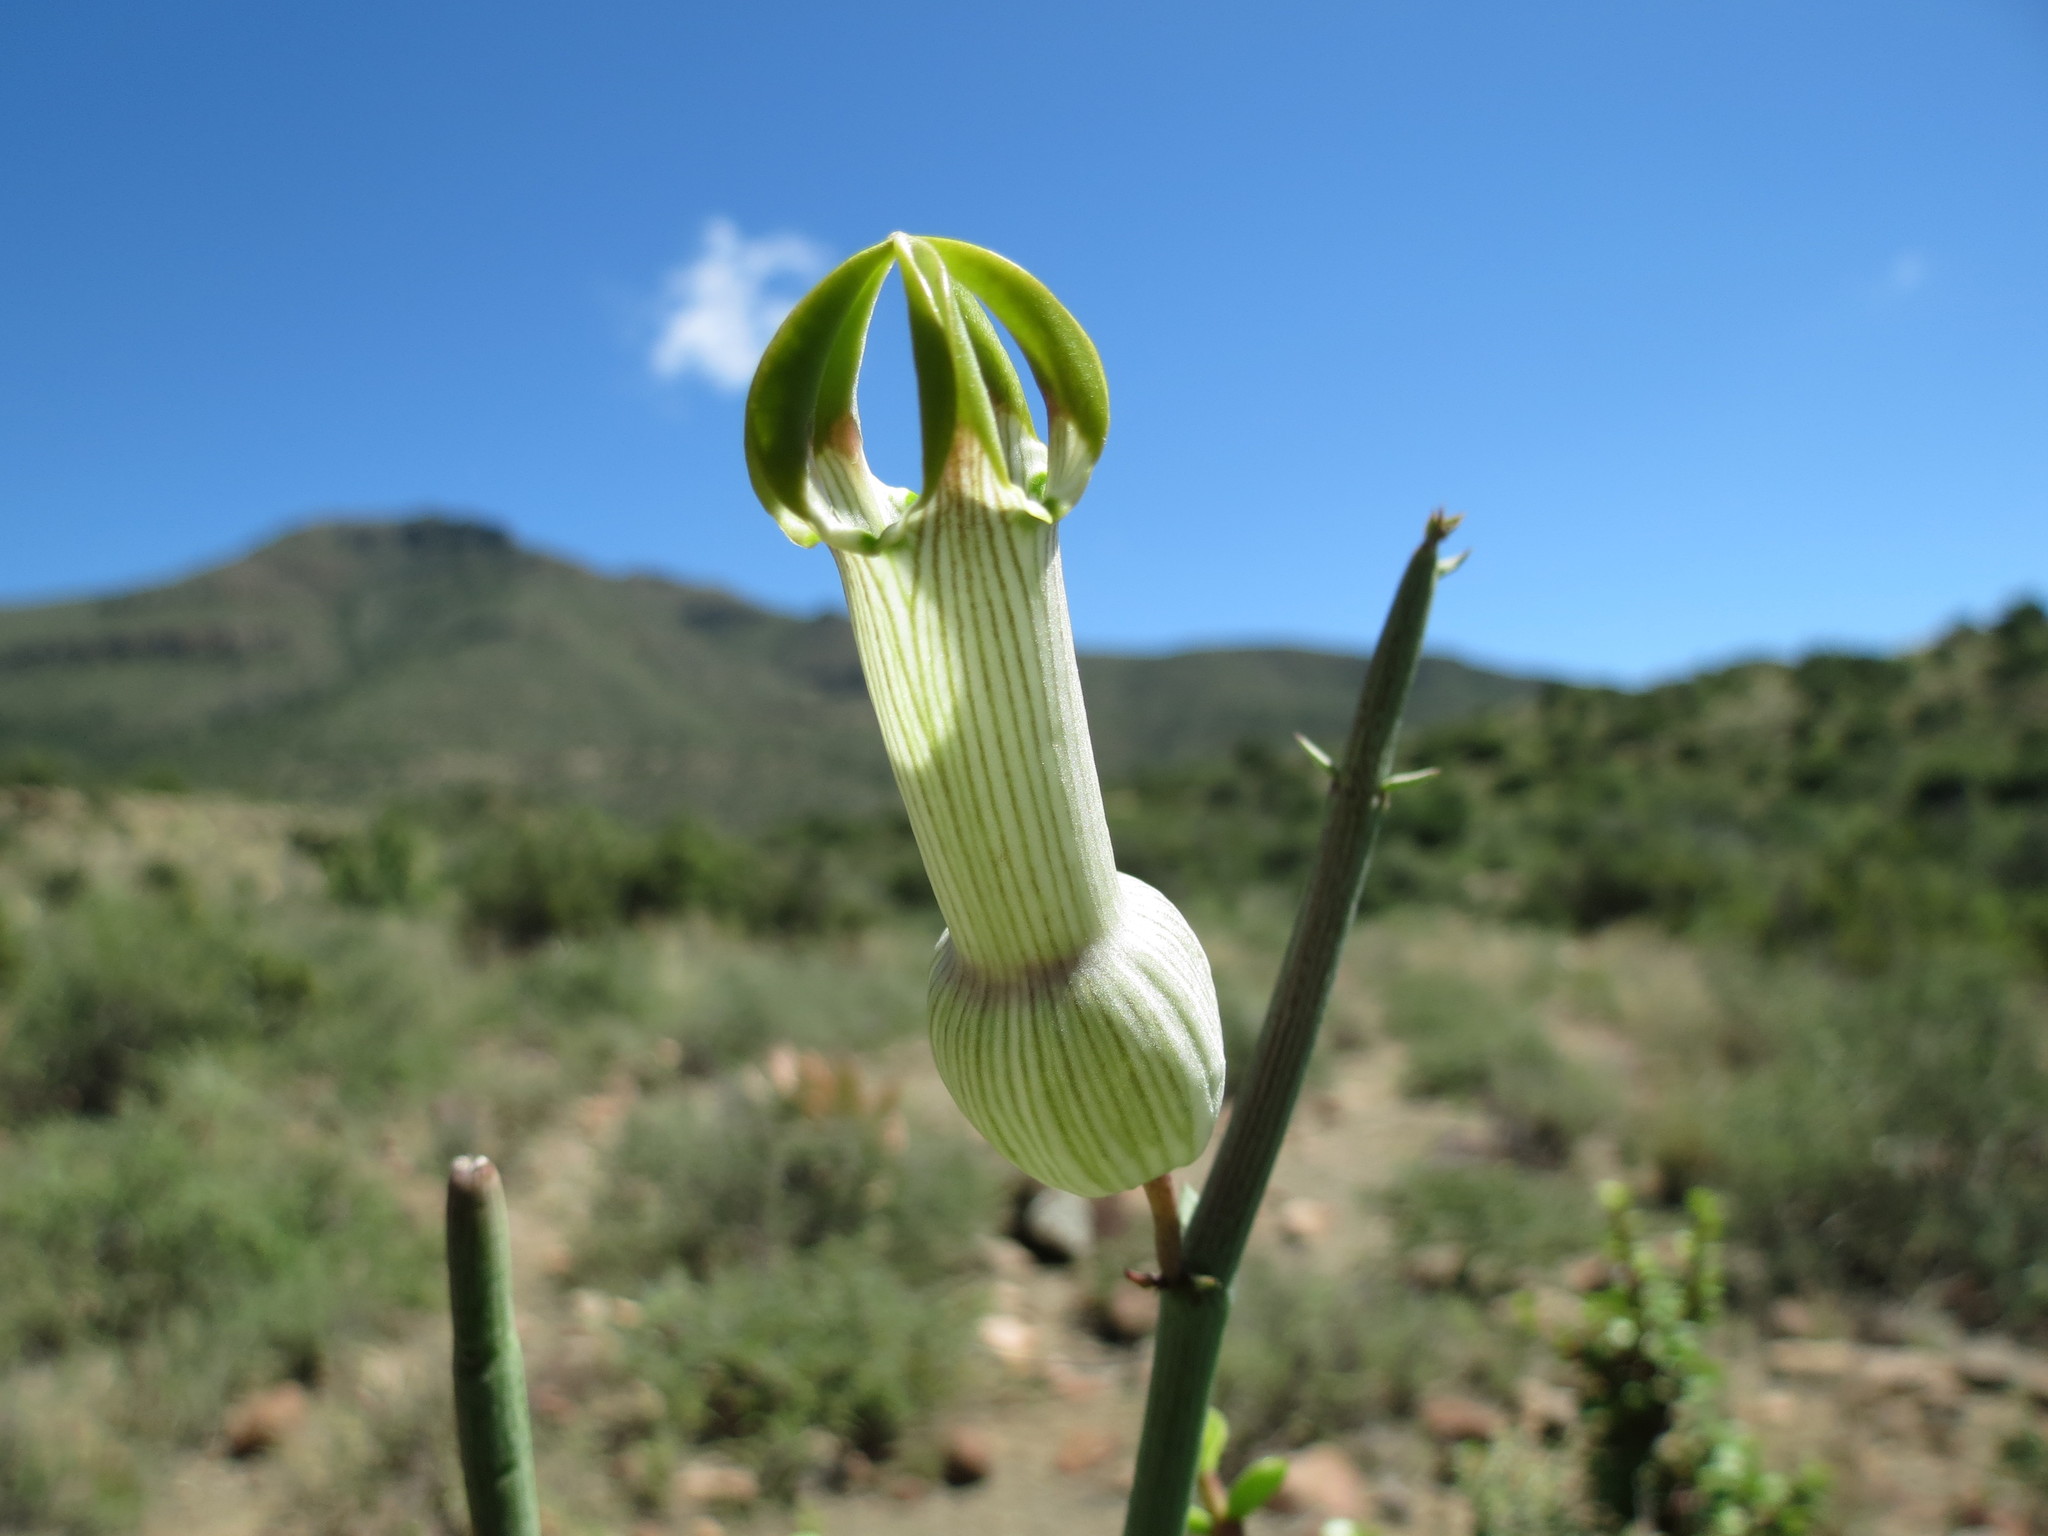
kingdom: Plantae
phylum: Tracheophyta
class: Magnoliopsida
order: Gentianales
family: Apocynaceae
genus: Ceropegia
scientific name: Ceropegia ampliata
